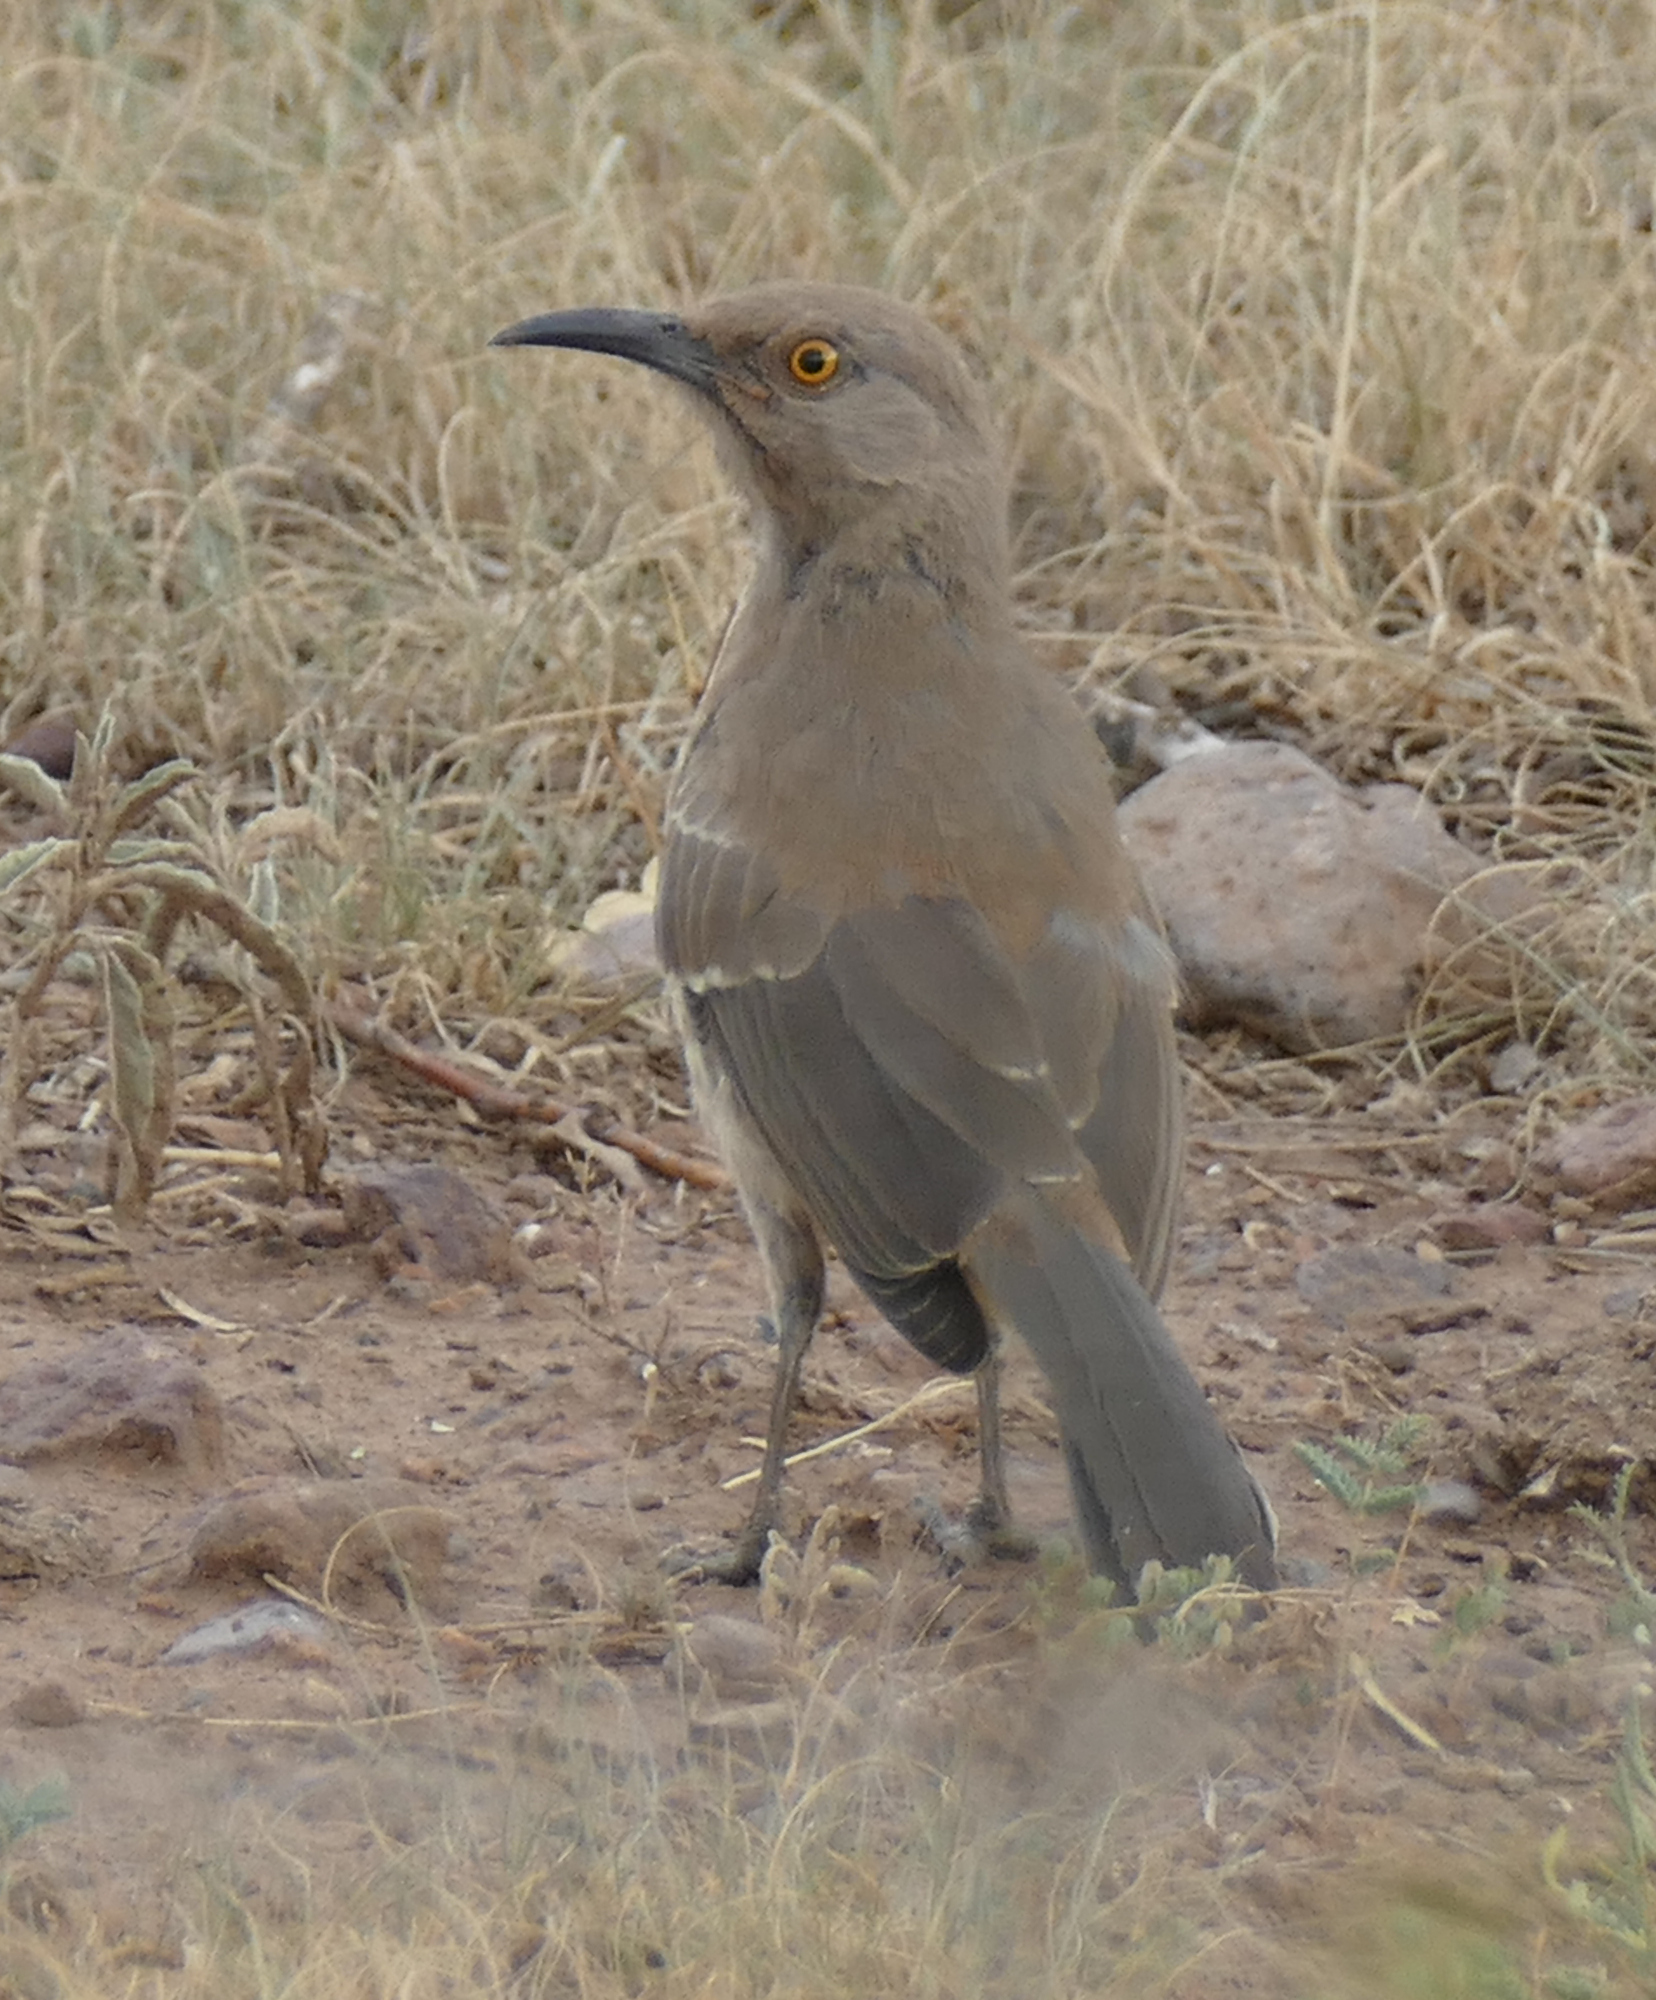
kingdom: Animalia
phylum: Chordata
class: Aves
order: Passeriformes
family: Mimidae
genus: Toxostoma
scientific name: Toxostoma curvirostre
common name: Curve-billed thrasher
